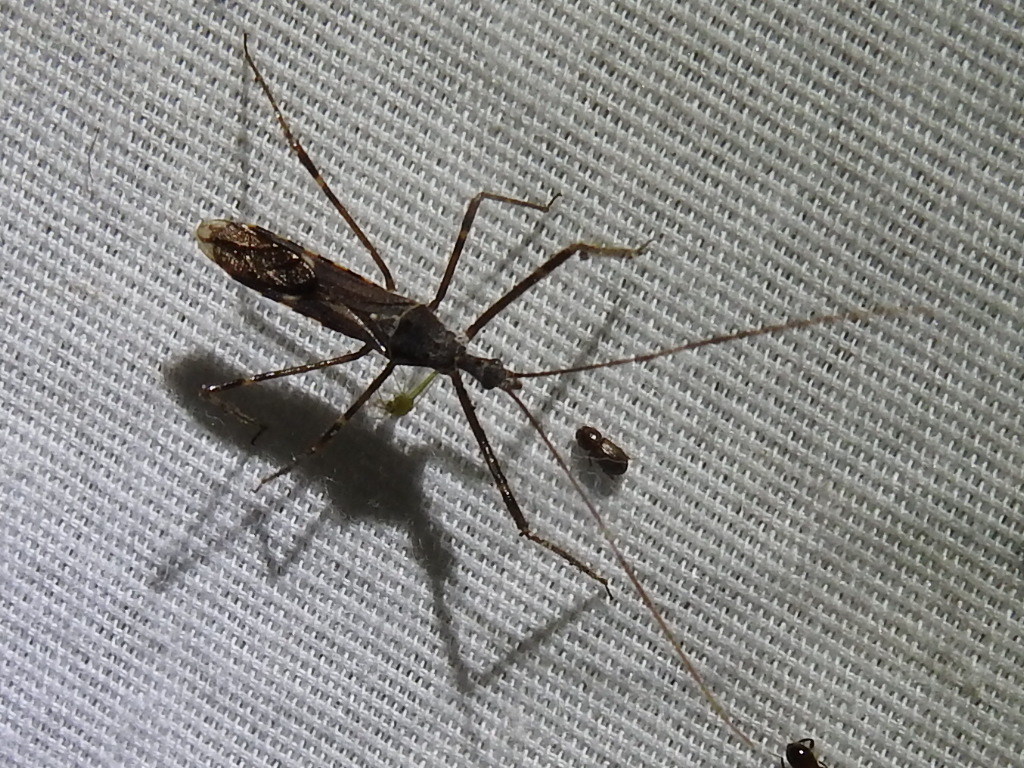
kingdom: Animalia
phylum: Arthropoda
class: Insecta
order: Hemiptera
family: Reduviidae
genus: Zelus
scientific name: Zelus tetracanthus
